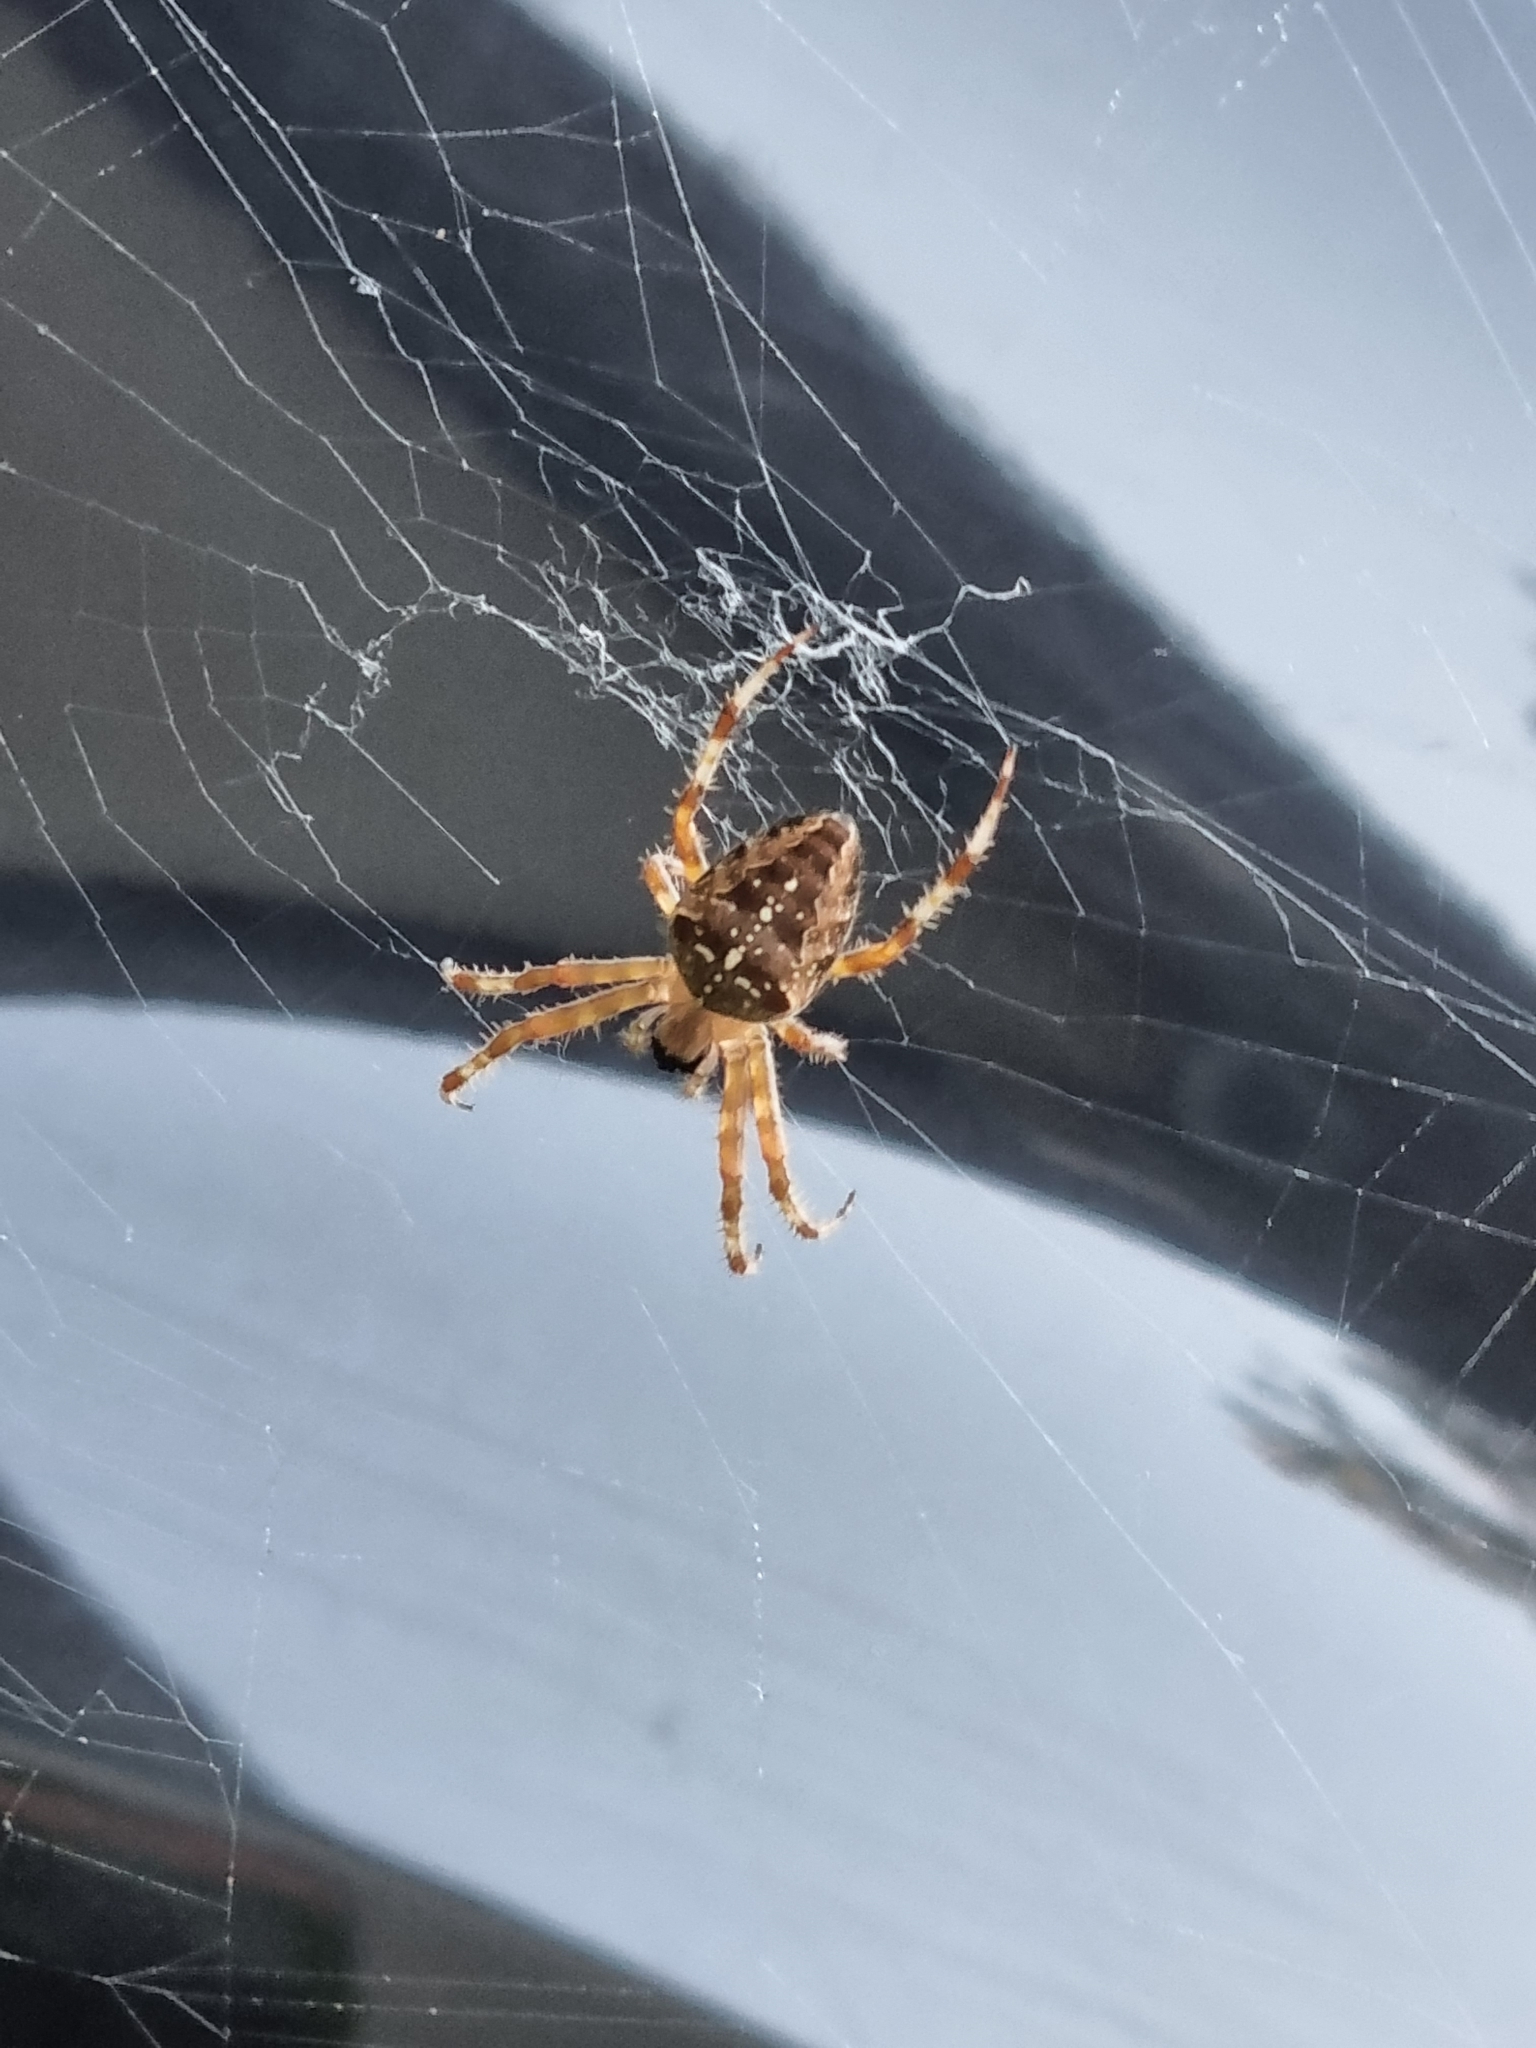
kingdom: Animalia
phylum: Arthropoda
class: Arachnida
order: Araneae
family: Araneidae
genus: Araneus
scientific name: Araneus diadematus
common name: Cross orbweaver
